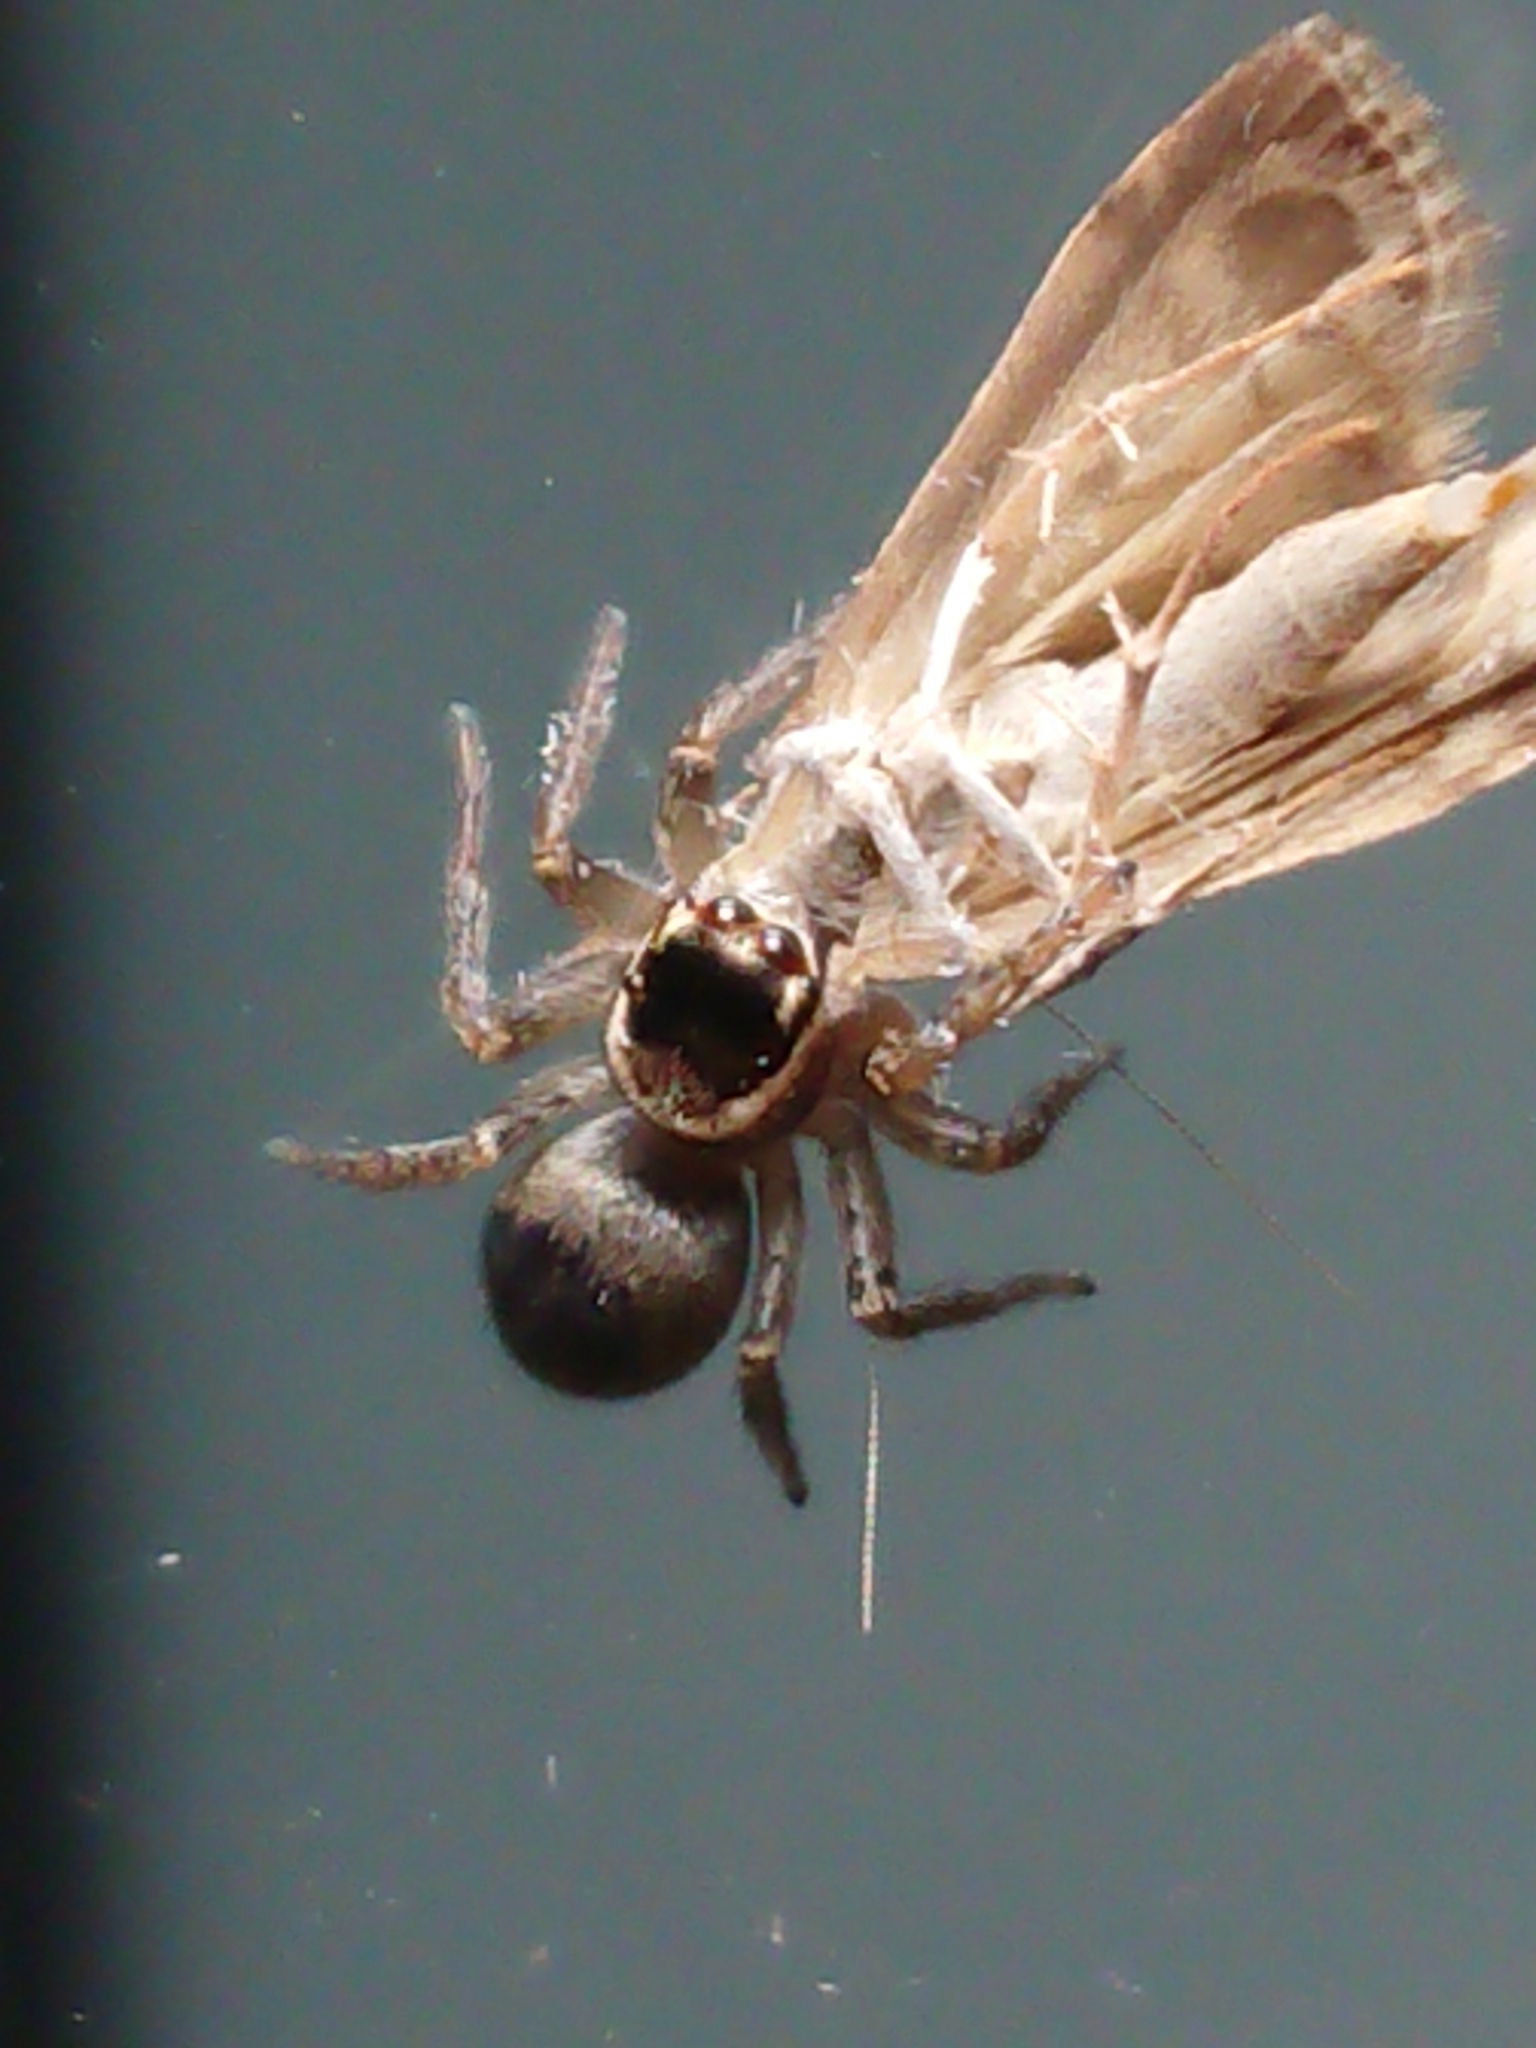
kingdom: Animalia
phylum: Arthropoda
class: Arachnida
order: Araneae
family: Salticidae
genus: Maratus
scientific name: Maratus griseus
